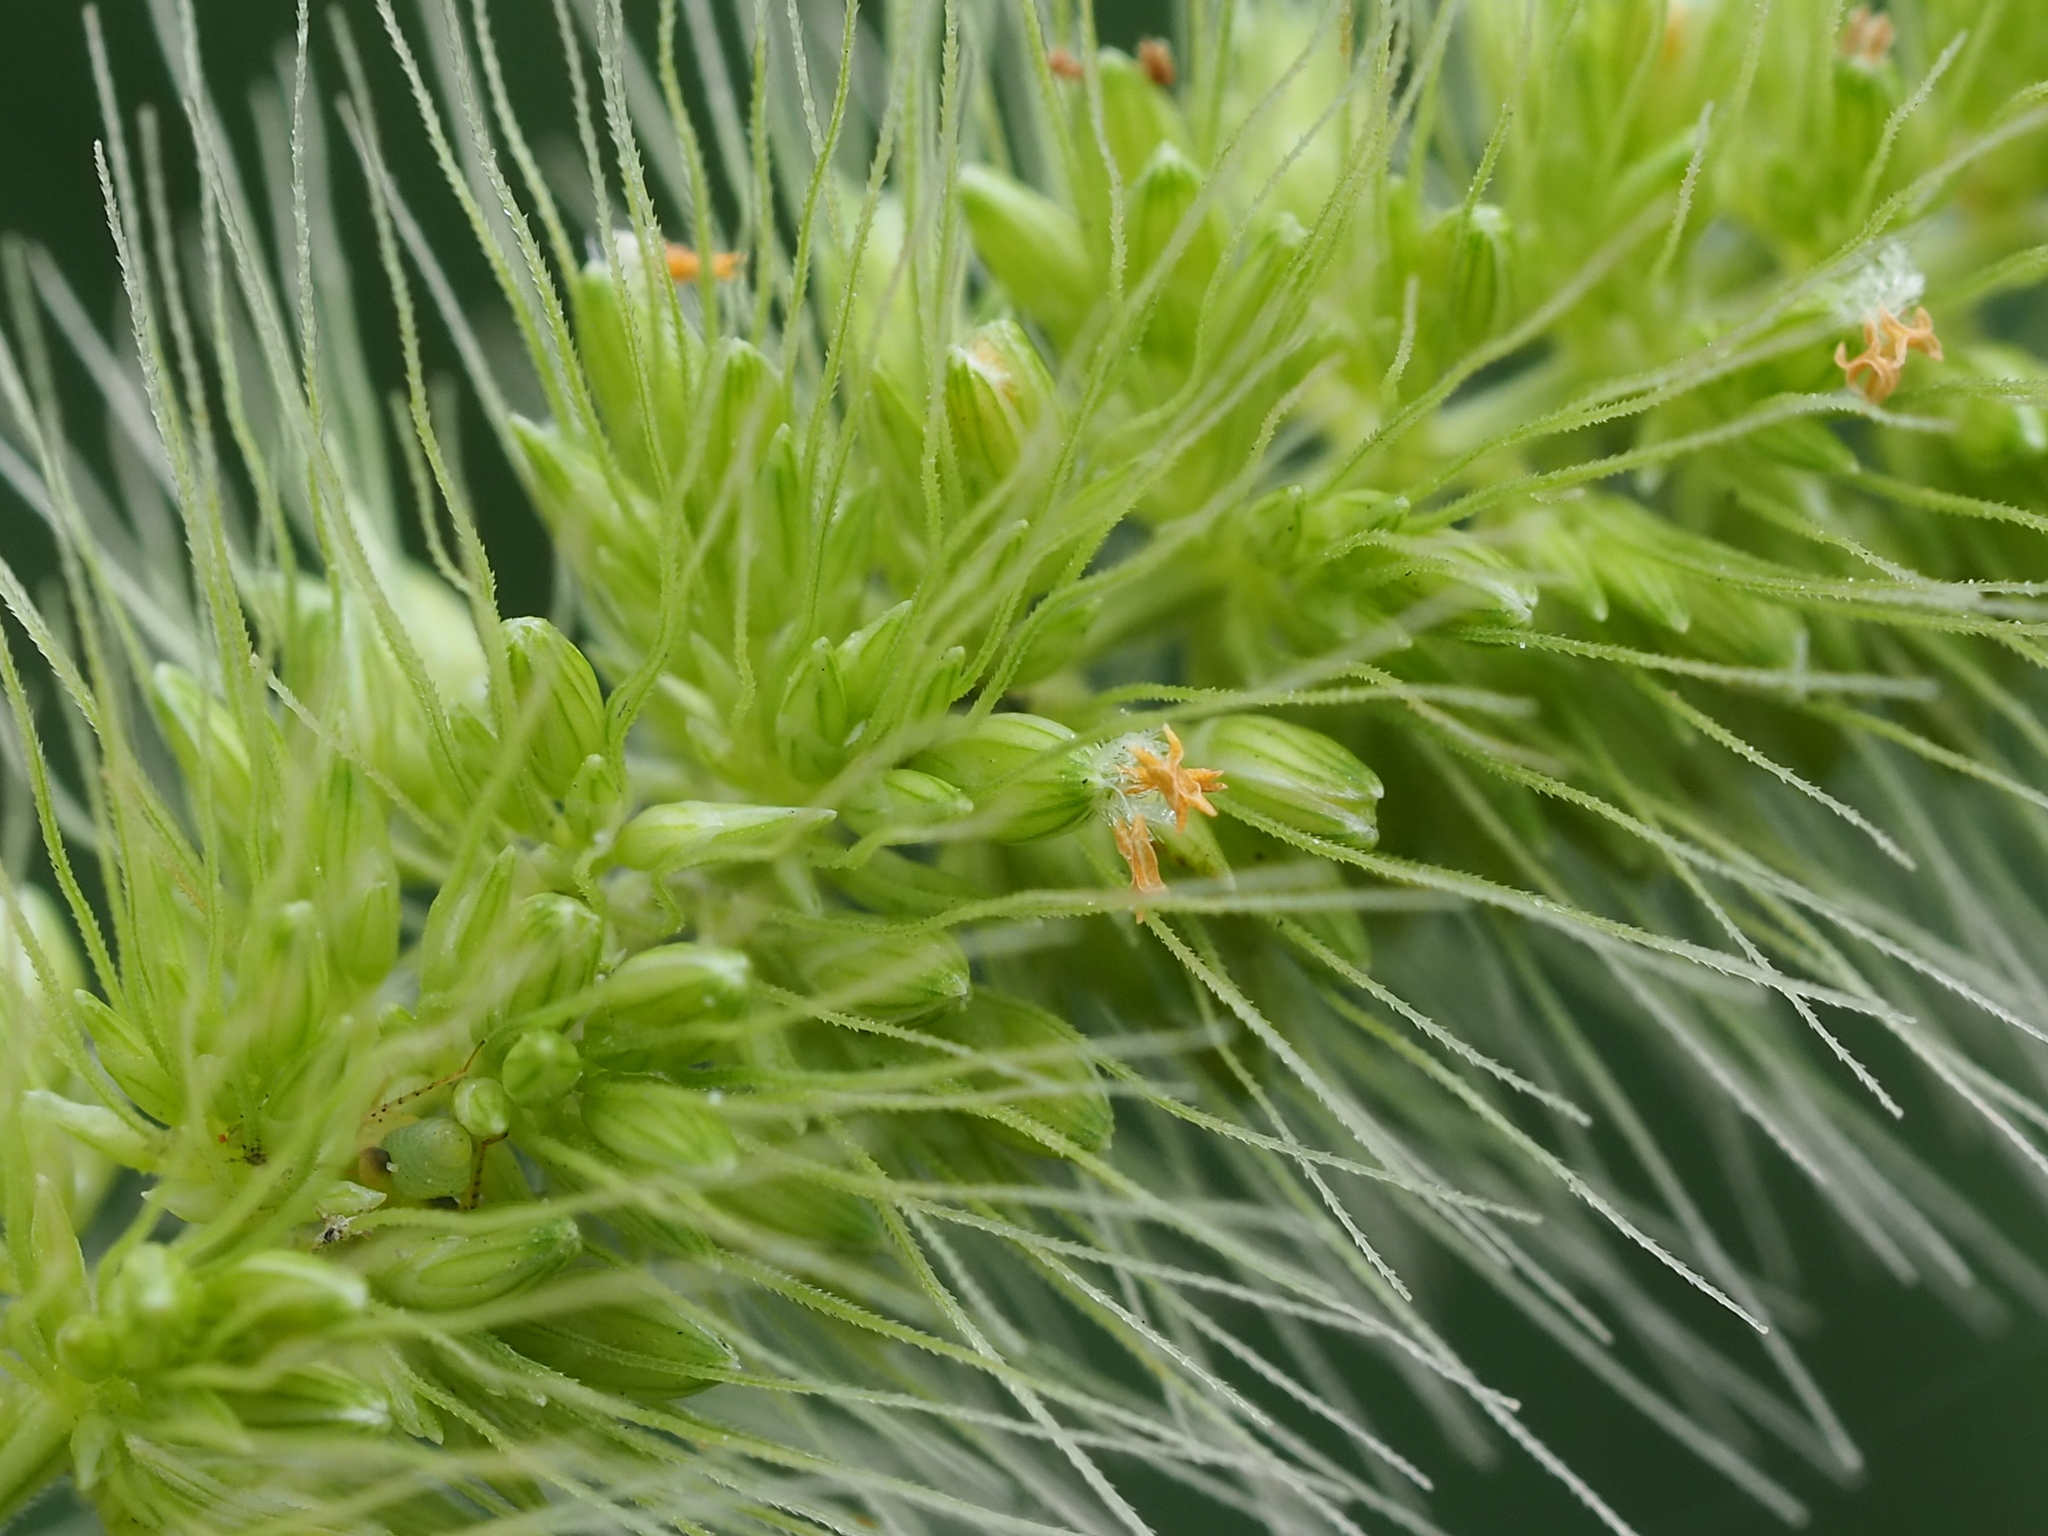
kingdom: Plantae
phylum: Tracheophyta
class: Liliopsida
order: Poales
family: Poaceae
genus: Setaria
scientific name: Setaria verticillata
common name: Hooked bristlegrass
